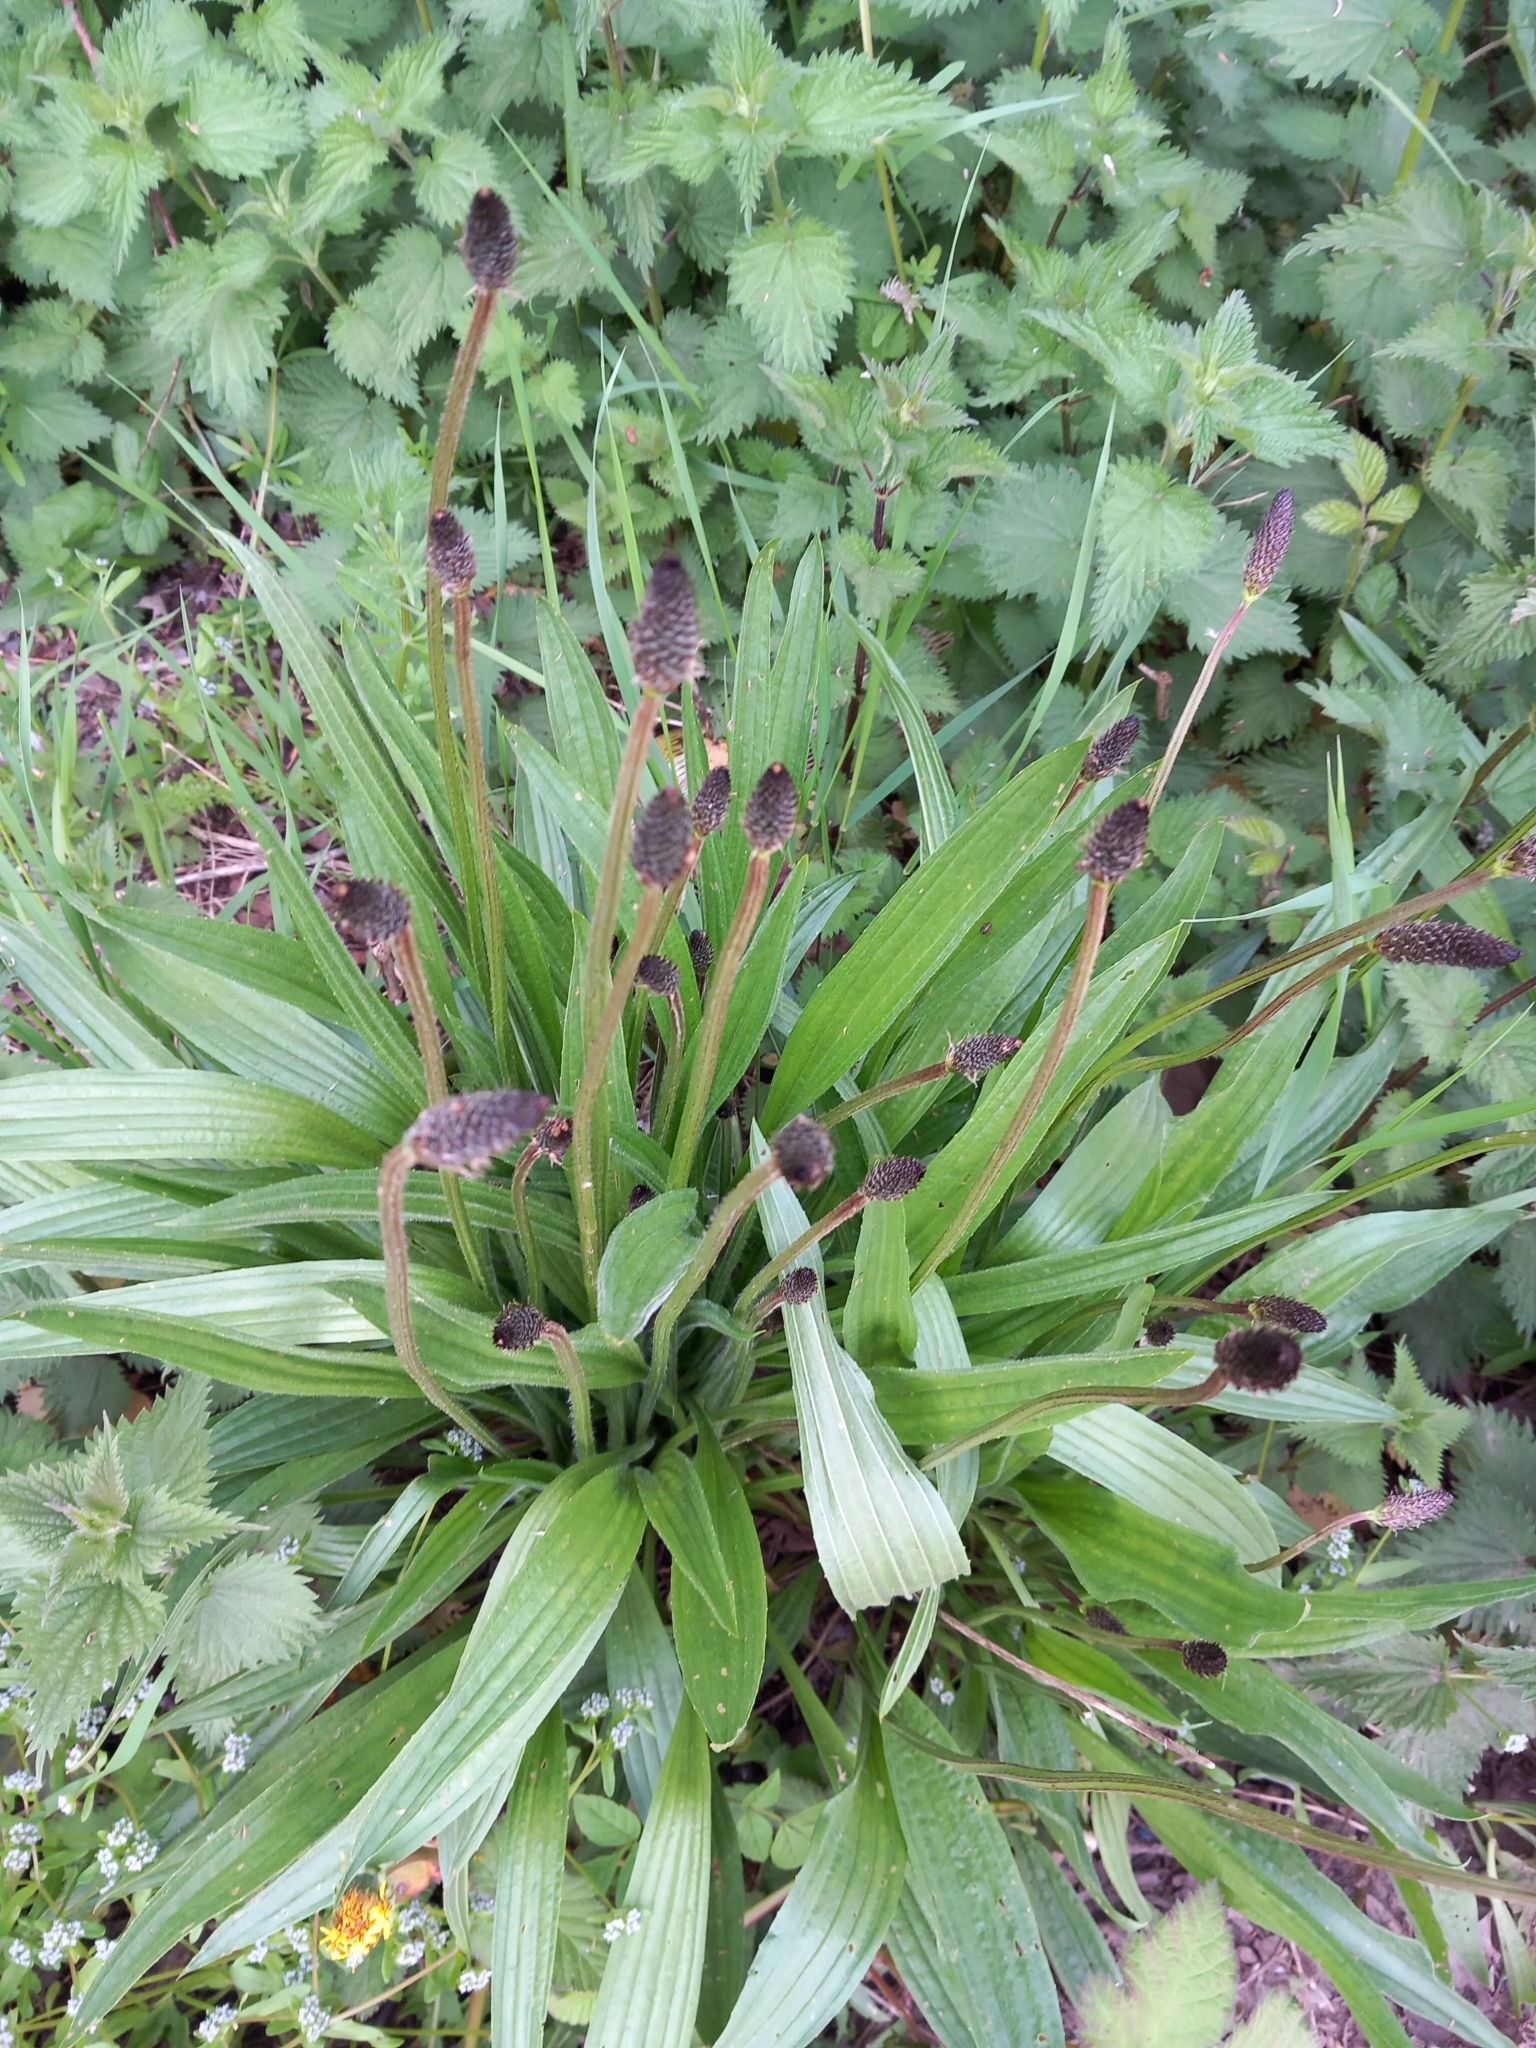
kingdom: Plantae
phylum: Tracheophyta
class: Magnoliopsida
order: Lamiales
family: Plantaginaceae
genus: Plantago
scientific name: Plantago lanceolata
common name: Ribwort plantain
